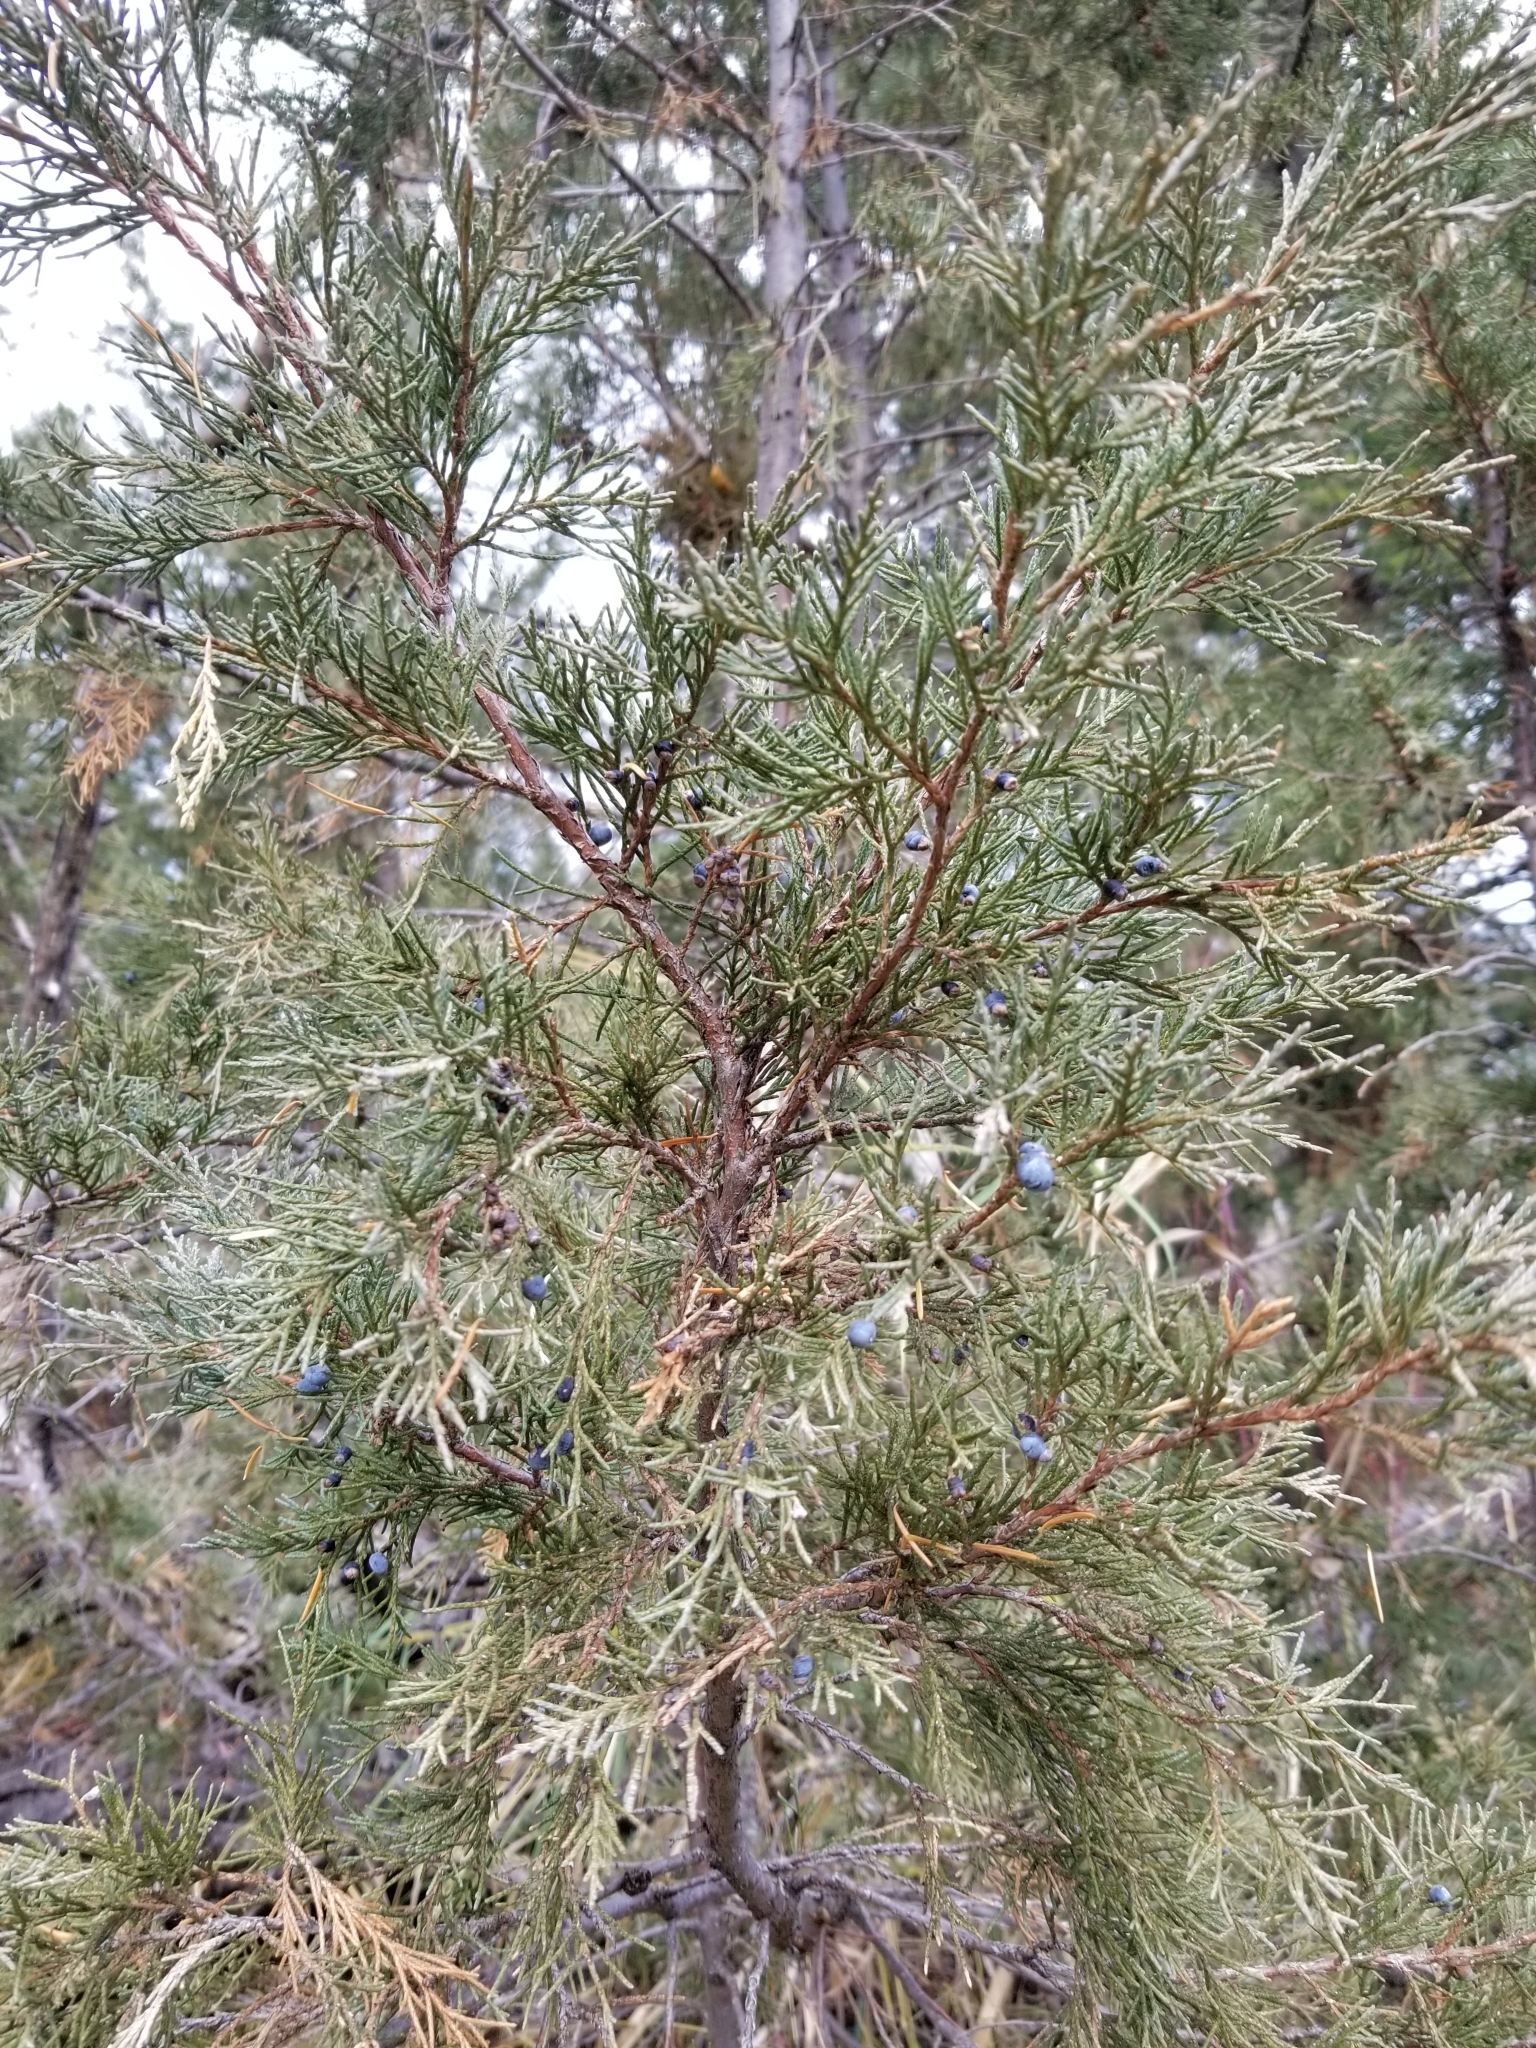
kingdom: Plantae
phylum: Tracheophyta
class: Pinopsida
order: Pinales
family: Cupressaceae
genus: Juniperus
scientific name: Juniperus scopulorum
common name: Rocky mountain juniper
